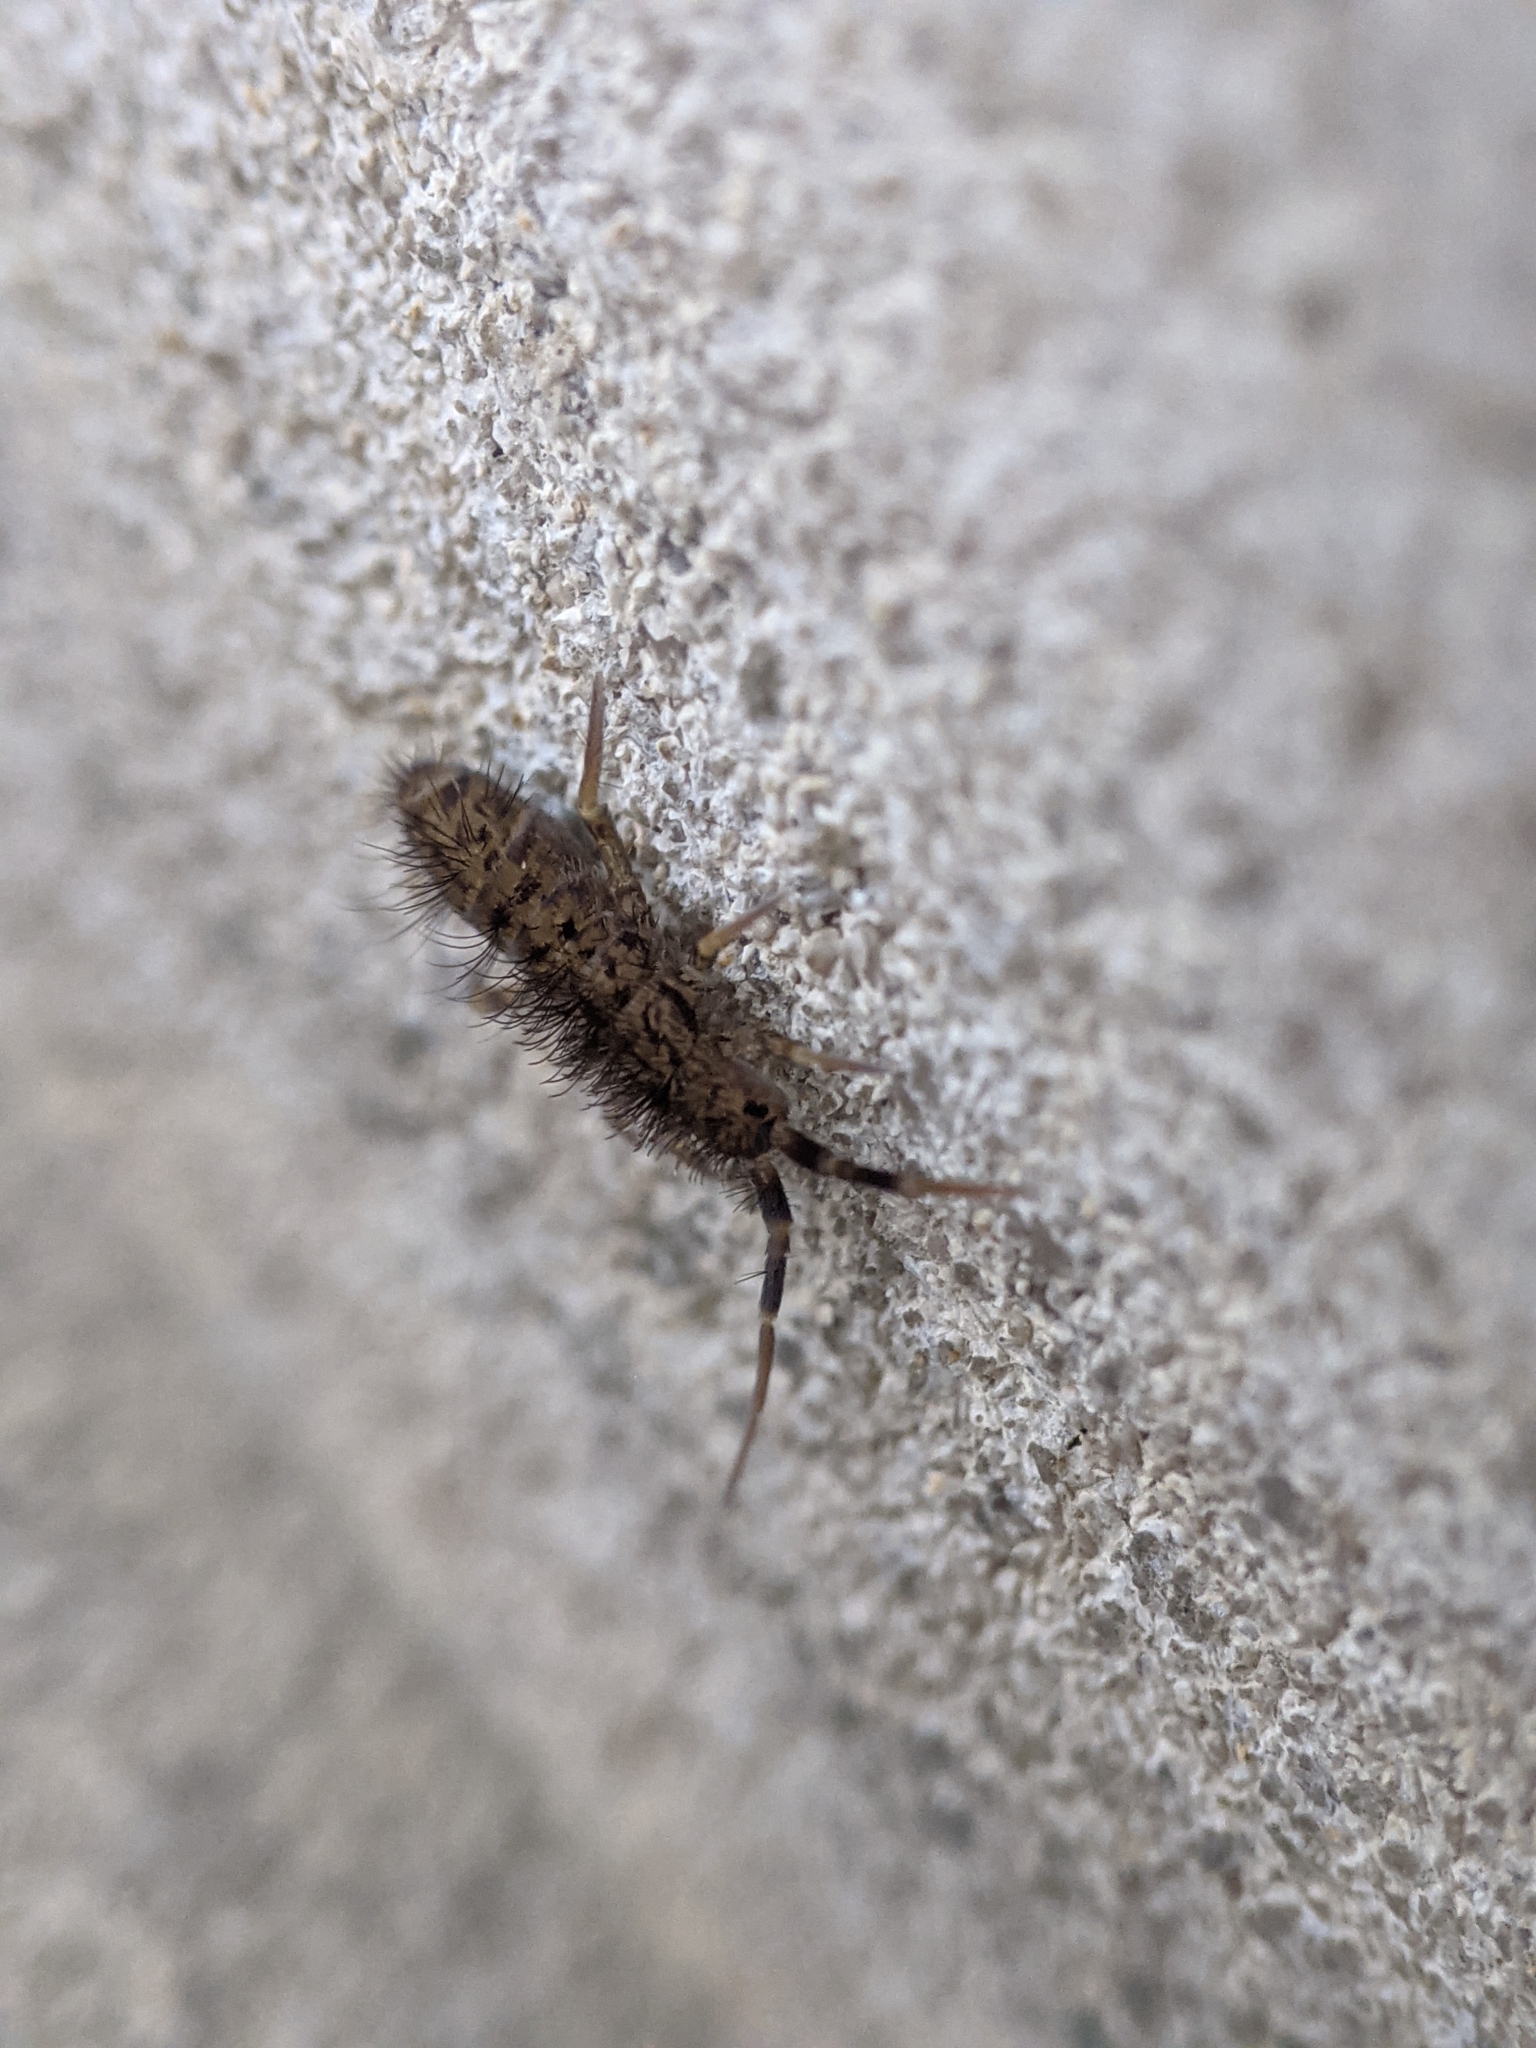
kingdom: Animalia
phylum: Arthropoda
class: Collembola
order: Entomobryomorpha
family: Orchesellidae
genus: Orchesella
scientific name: Orchesella villosa
